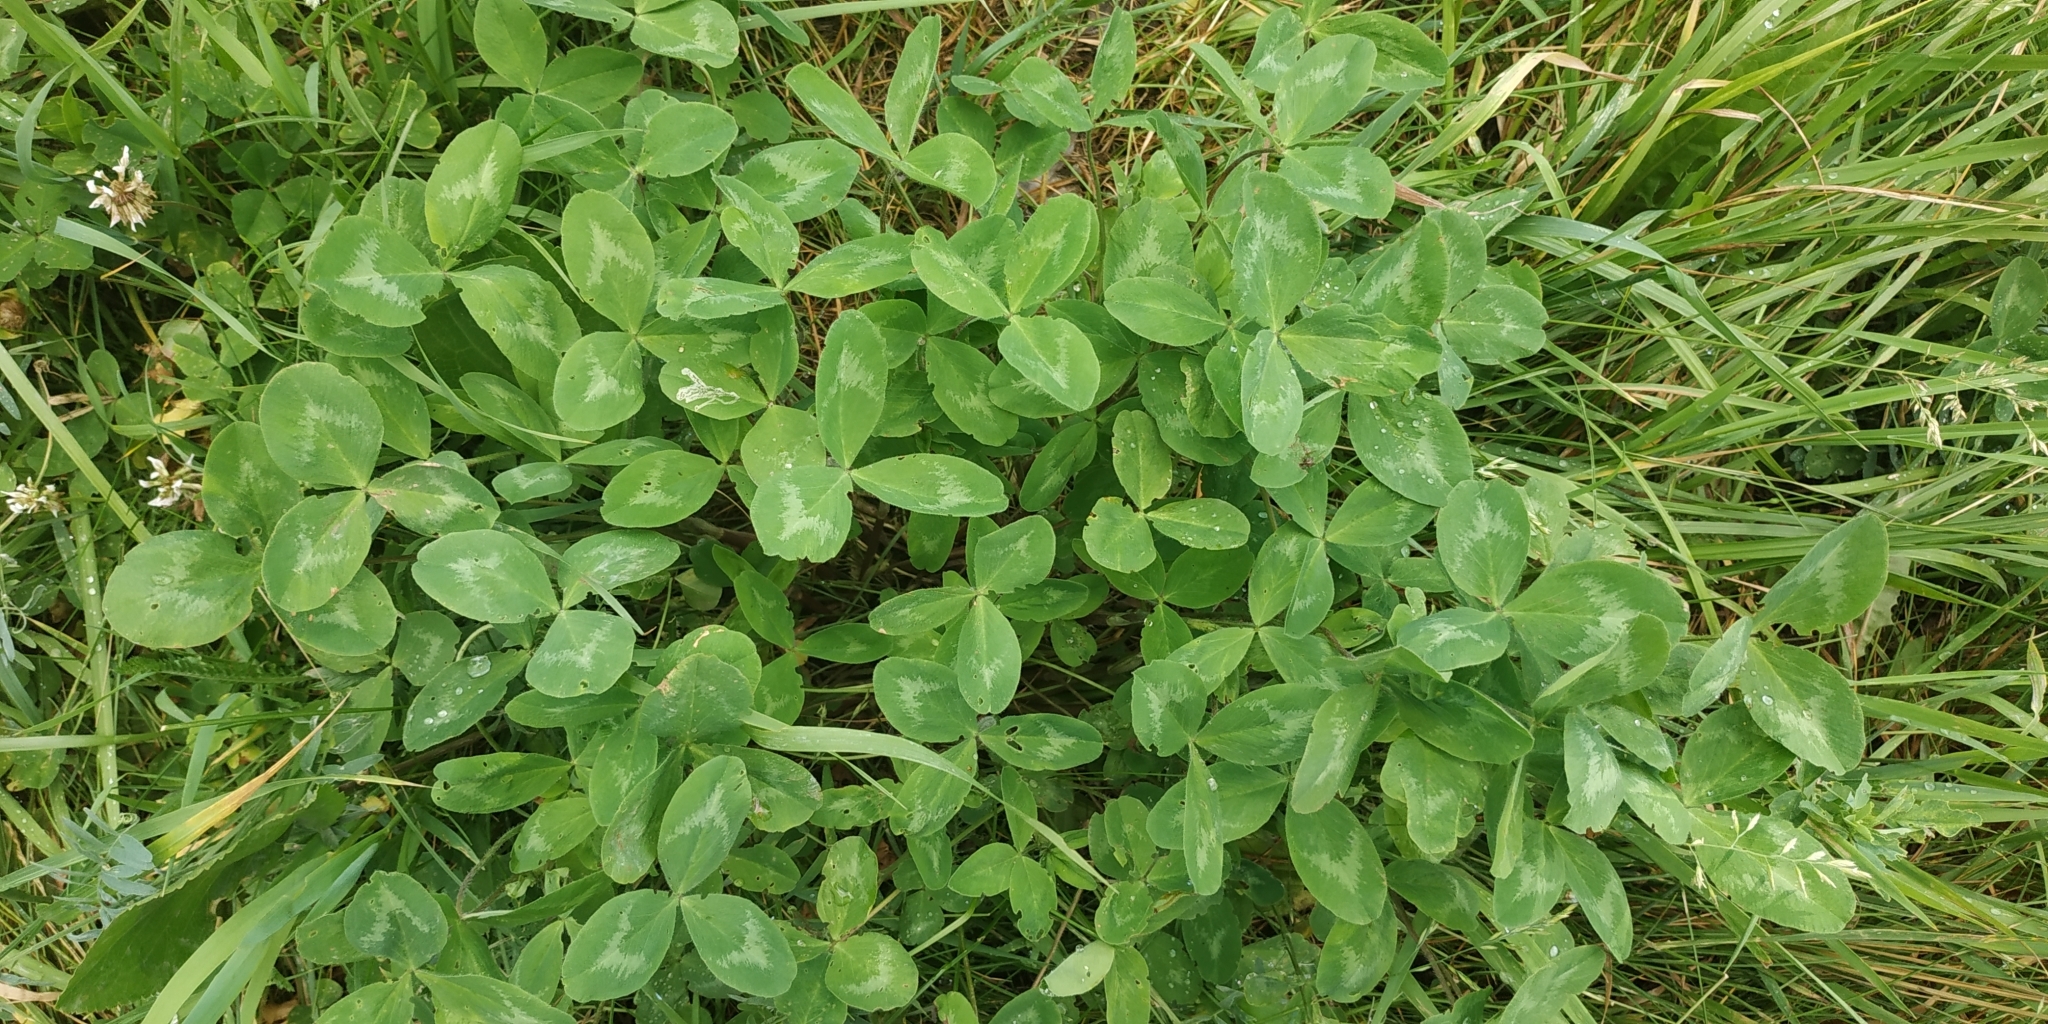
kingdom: Plantae
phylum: Tracheophyta
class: Magnoliopsida
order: Fabales
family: Fabaceae
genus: Trifolium
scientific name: Trifolium pratense
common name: Red clover
